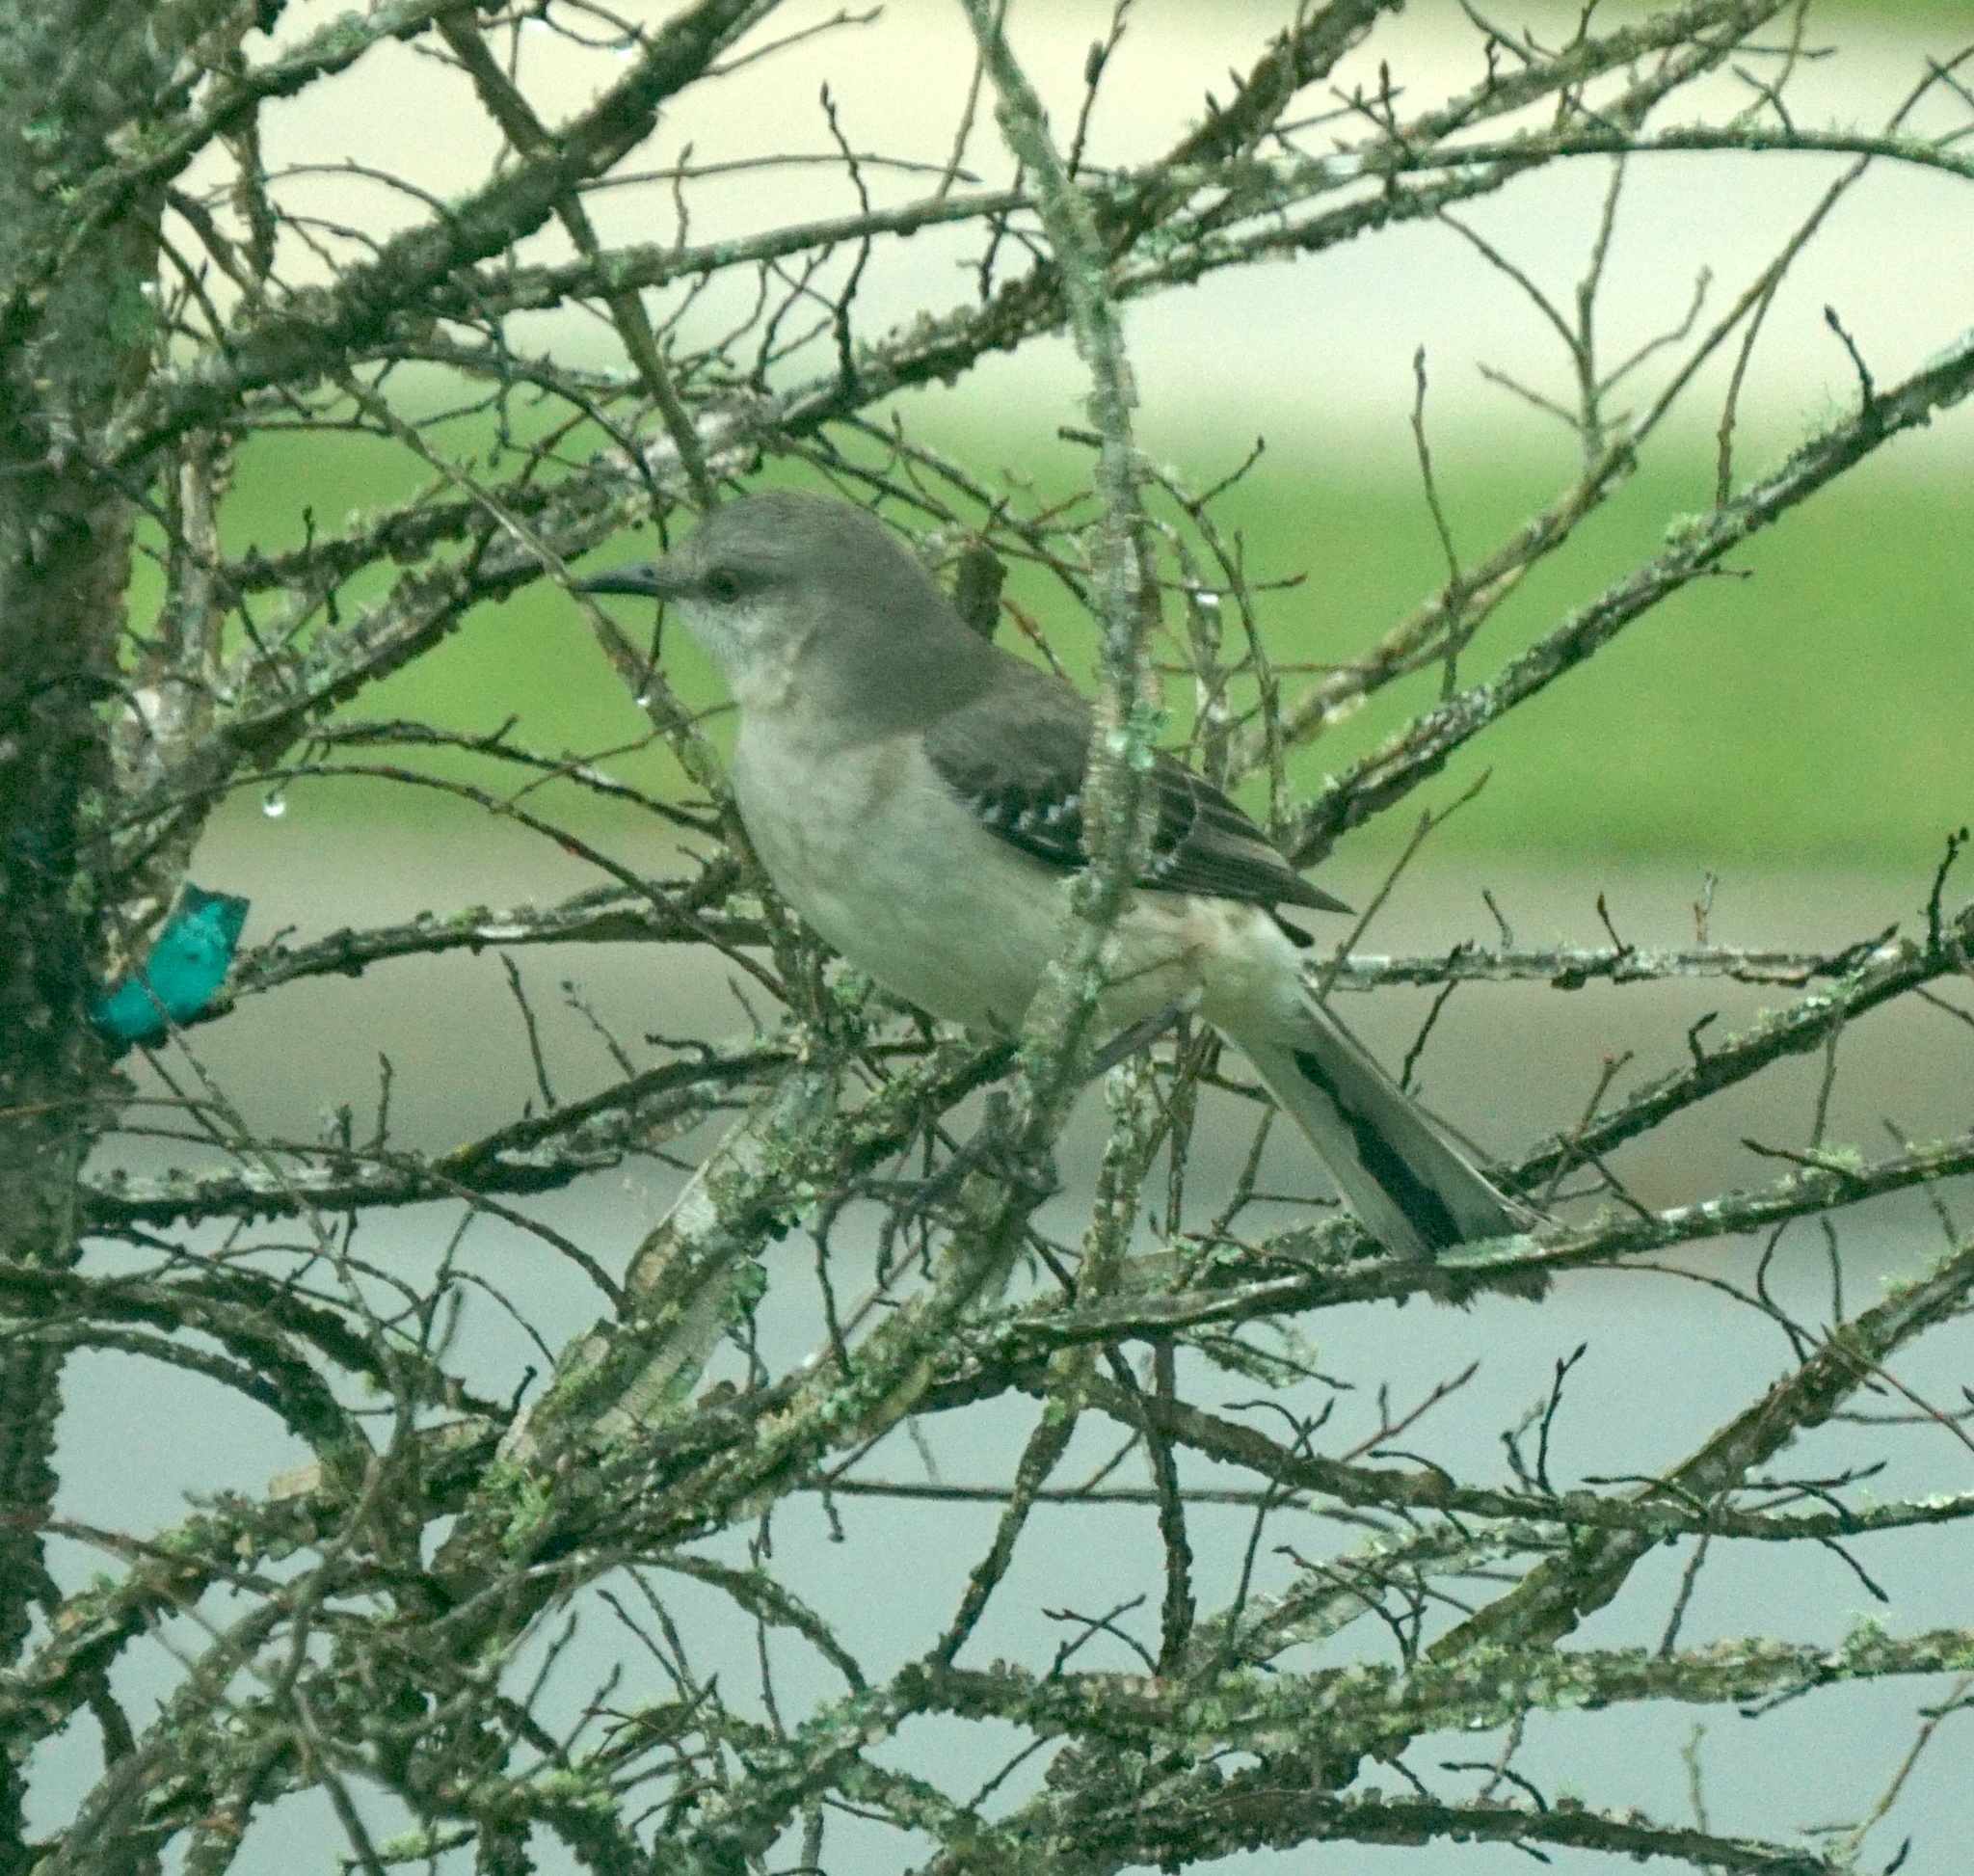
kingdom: Animalia
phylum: Chordata
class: Aves
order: Passeriformes
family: Mimidae
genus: Mimus
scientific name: Mimus polyglottos
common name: Northern mockingbird
